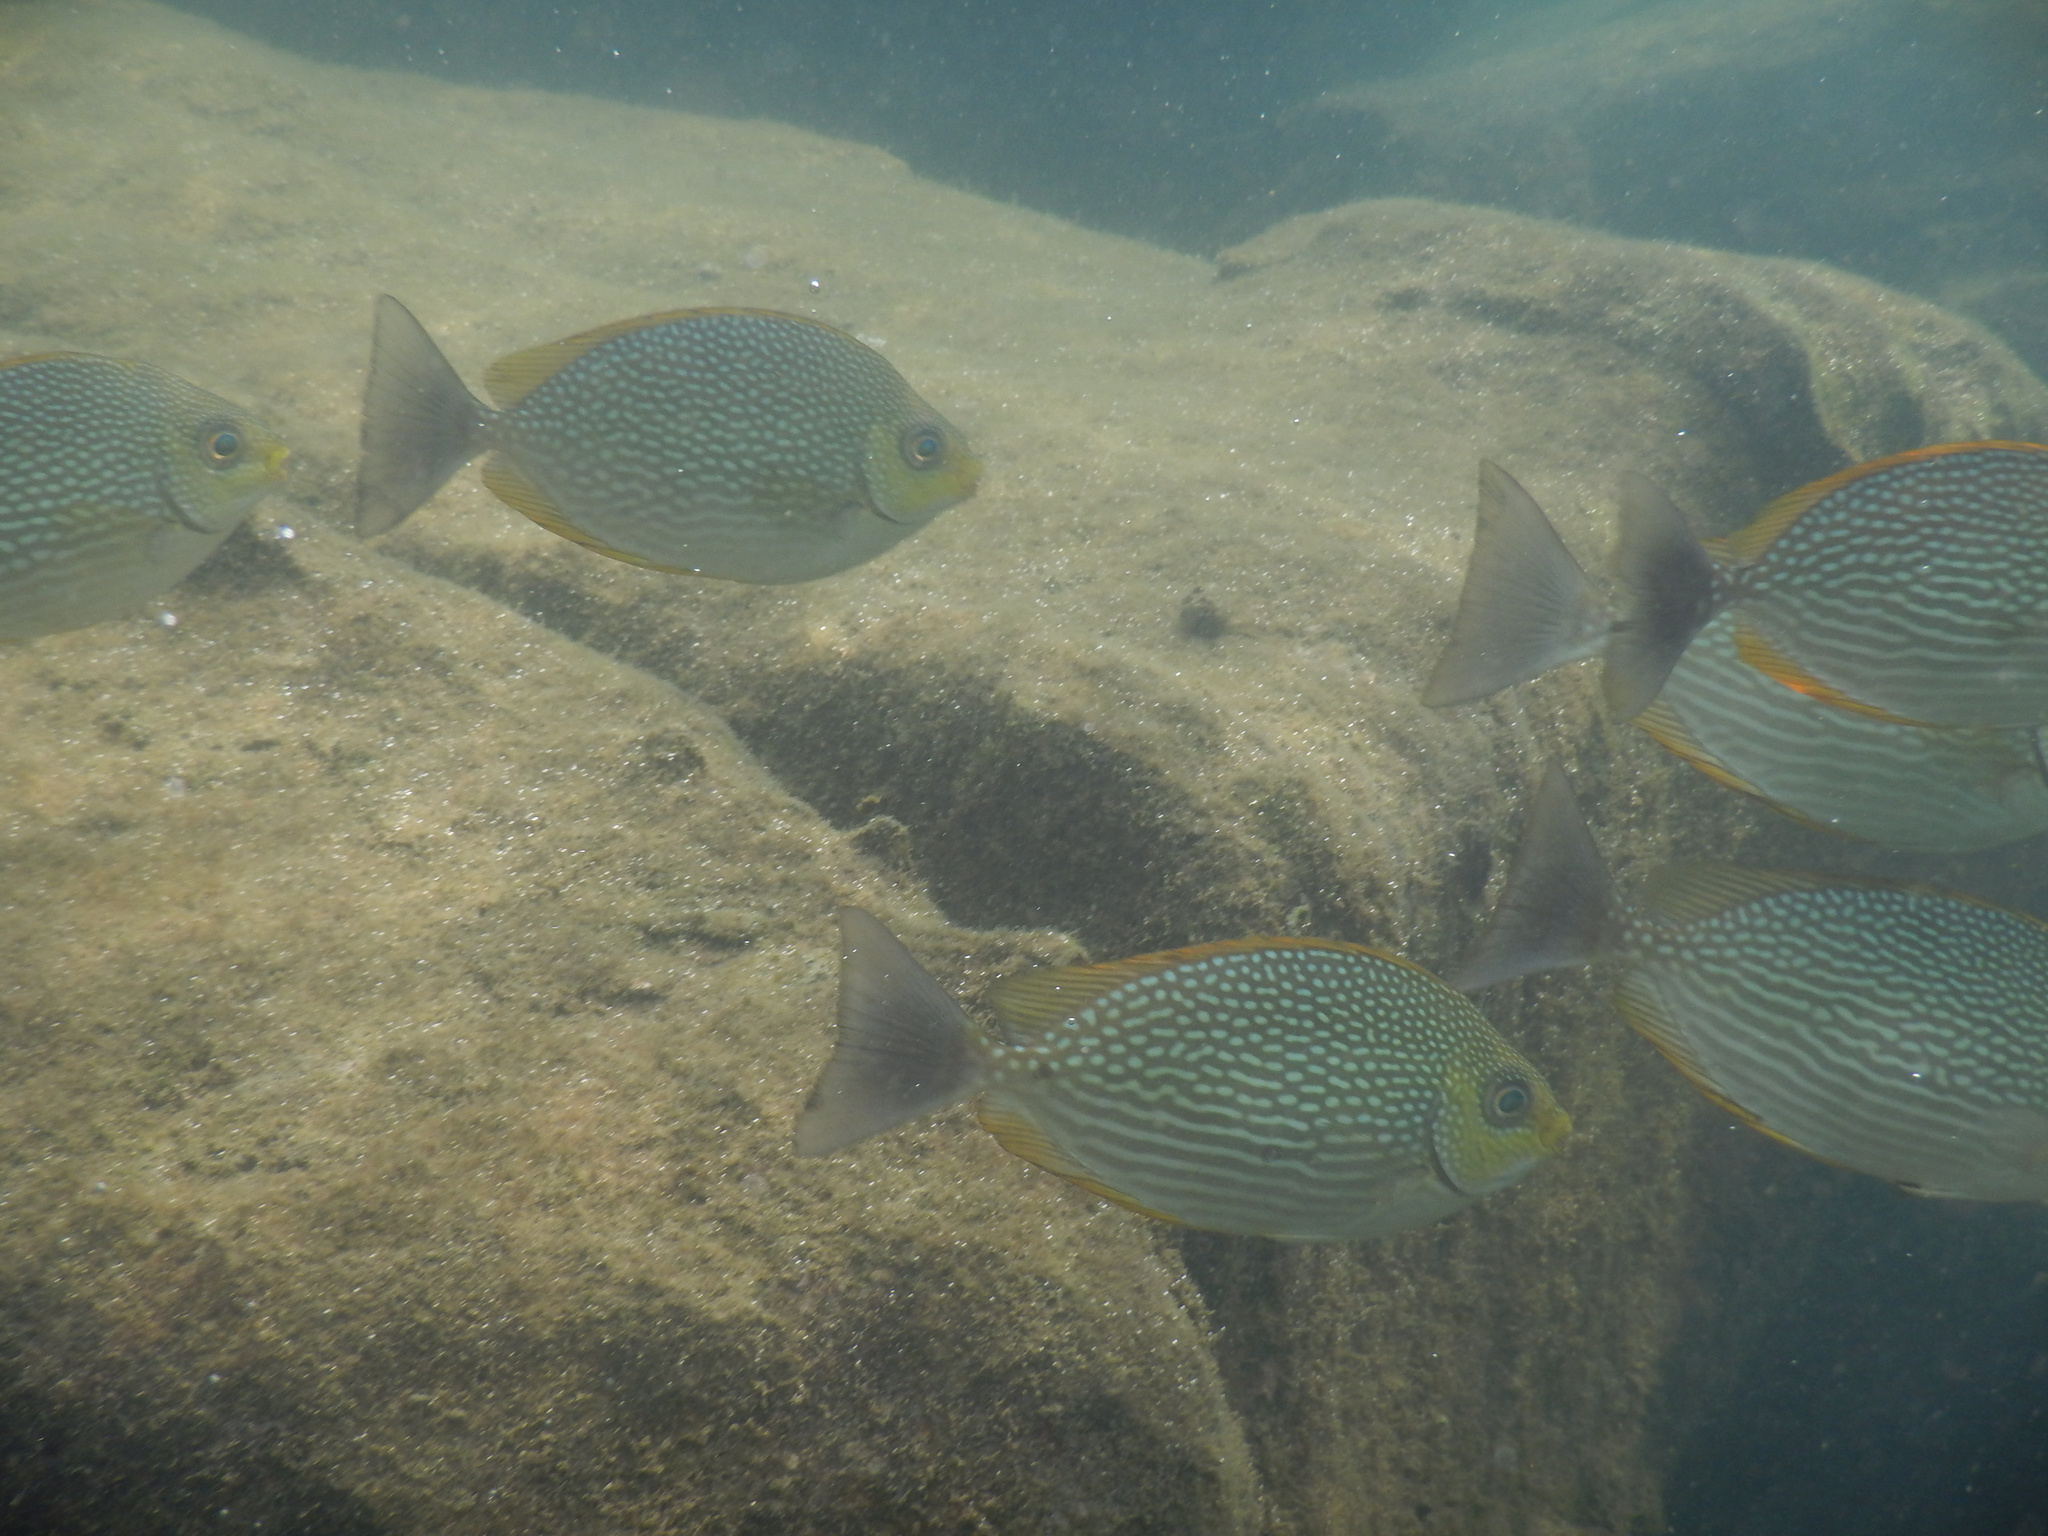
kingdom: Animalia
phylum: Chordata
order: Perciformes
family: Siganidae
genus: Siganus
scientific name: Siganus javus
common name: Java rabbitfish
